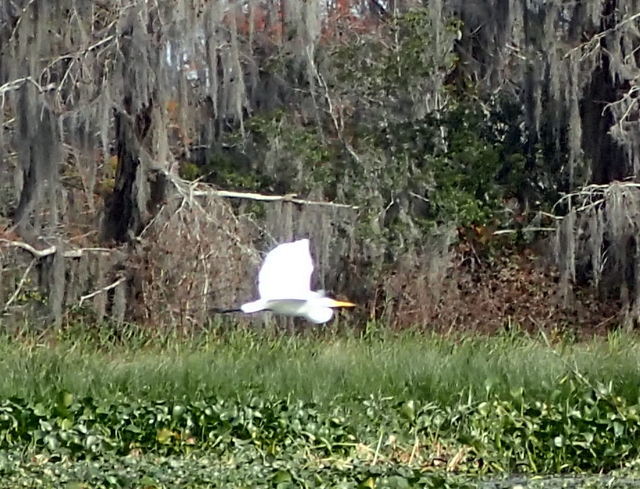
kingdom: Animalia
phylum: Chordata
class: Aves
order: Pelecaniformes
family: Ardeidae
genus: Ardea
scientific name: Ardea alba
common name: Great egret
